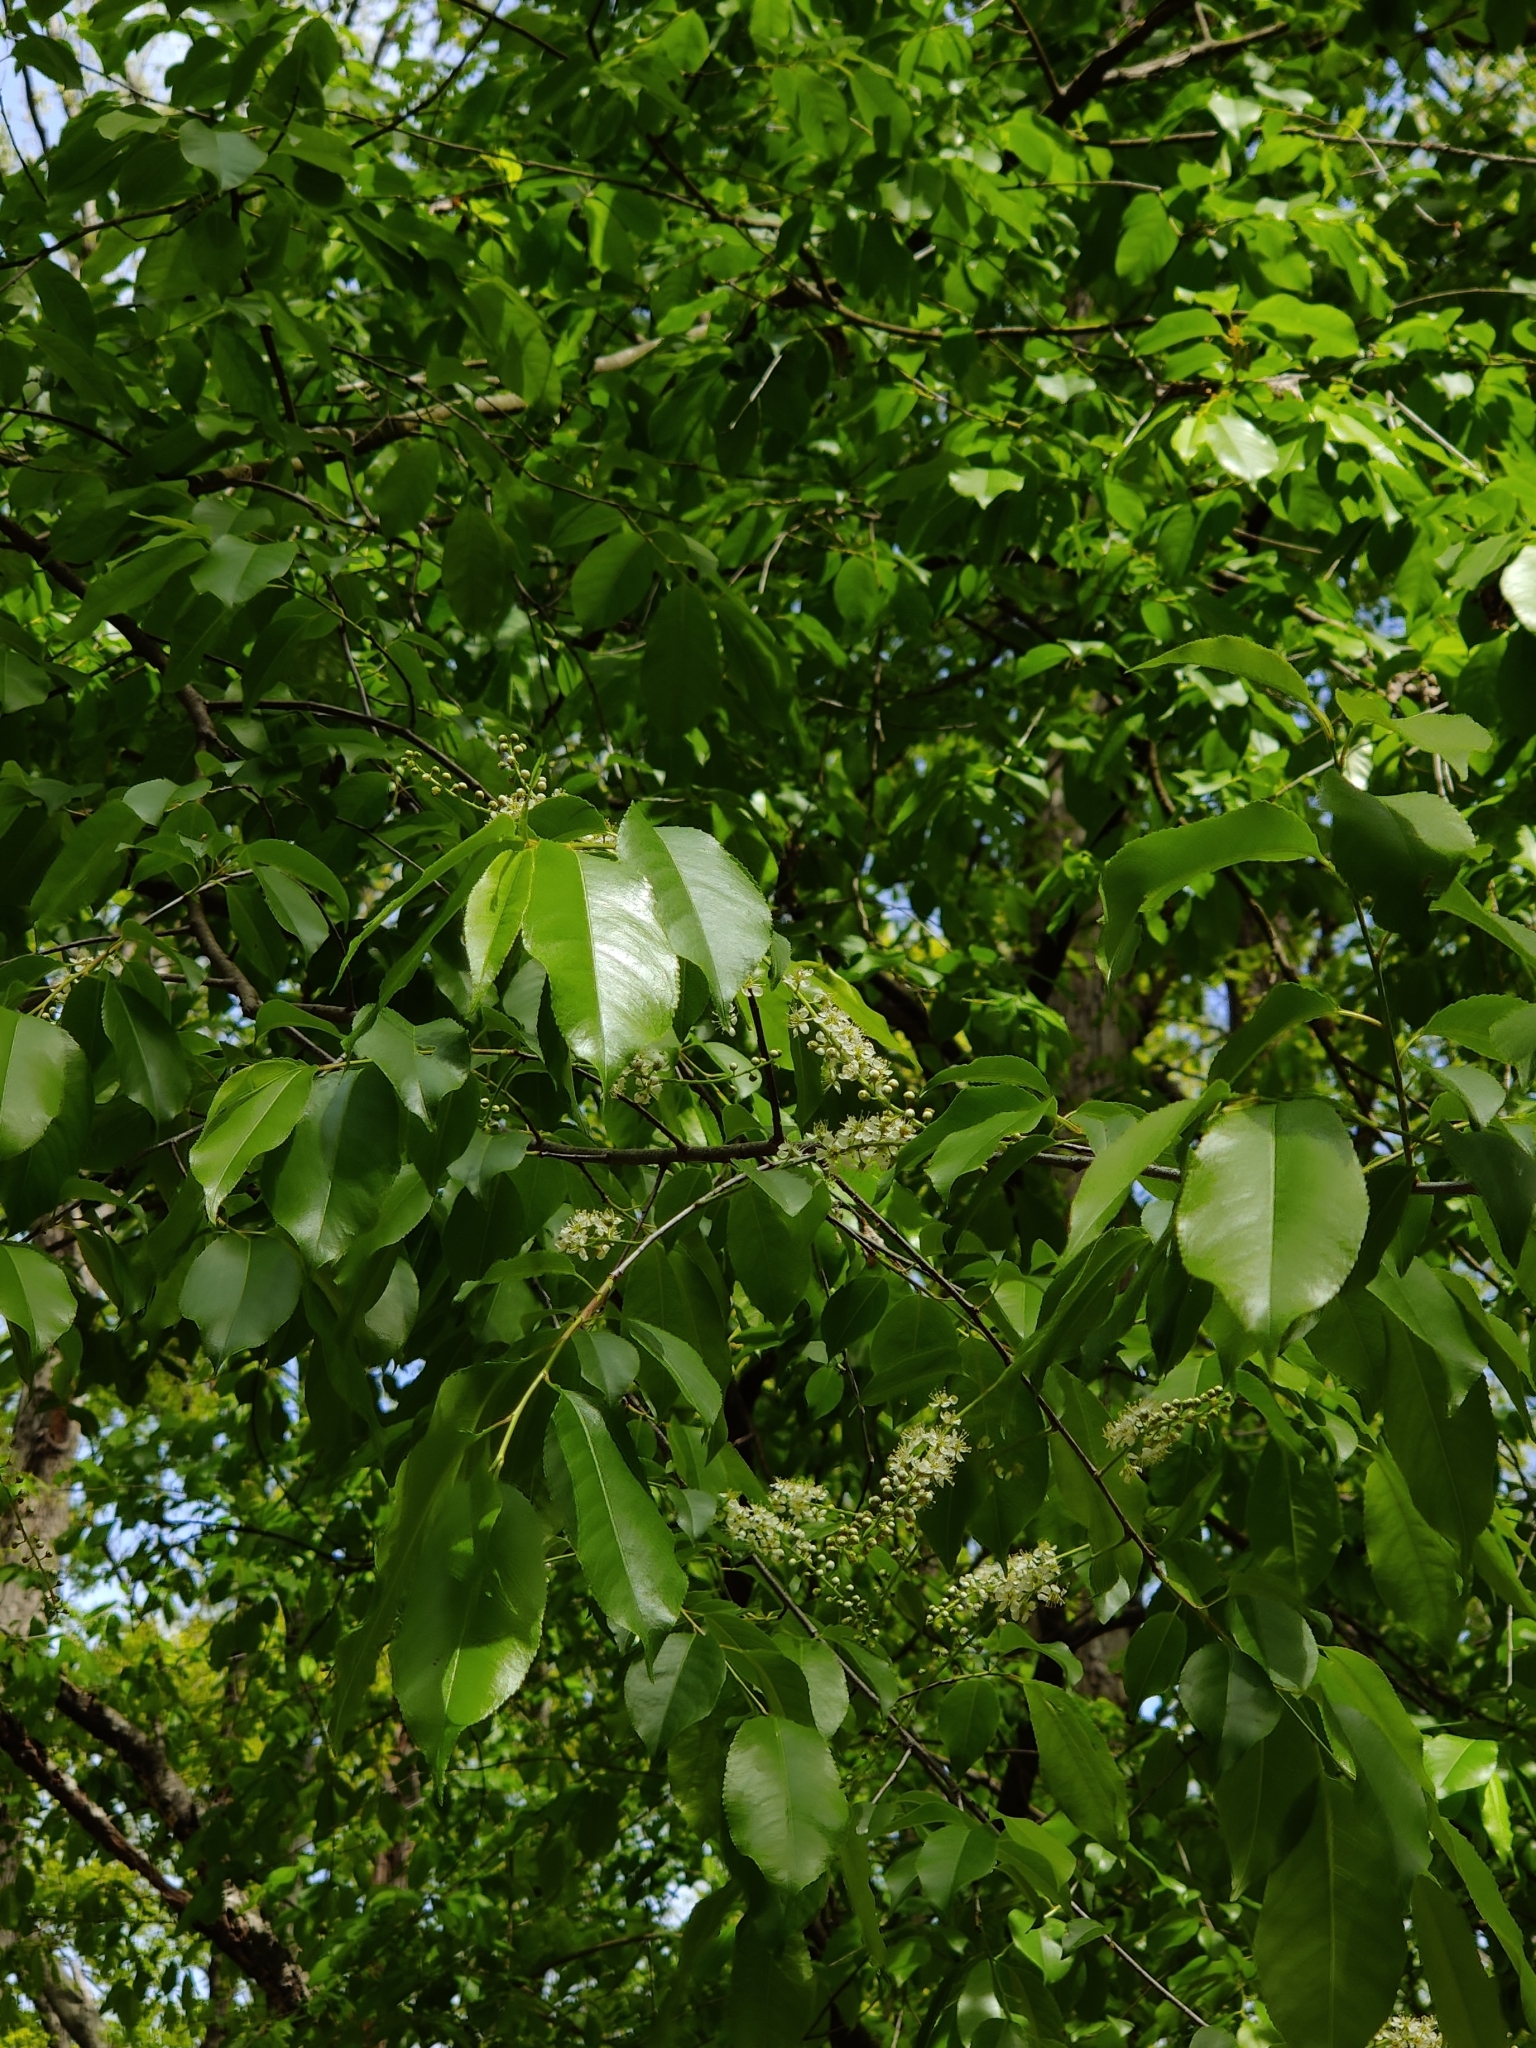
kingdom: Plantae
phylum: Tracheophyta
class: Magnoliopsida
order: Rosales
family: Rosaceae
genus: Prunus
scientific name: Prunus serotina
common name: Black cherry
